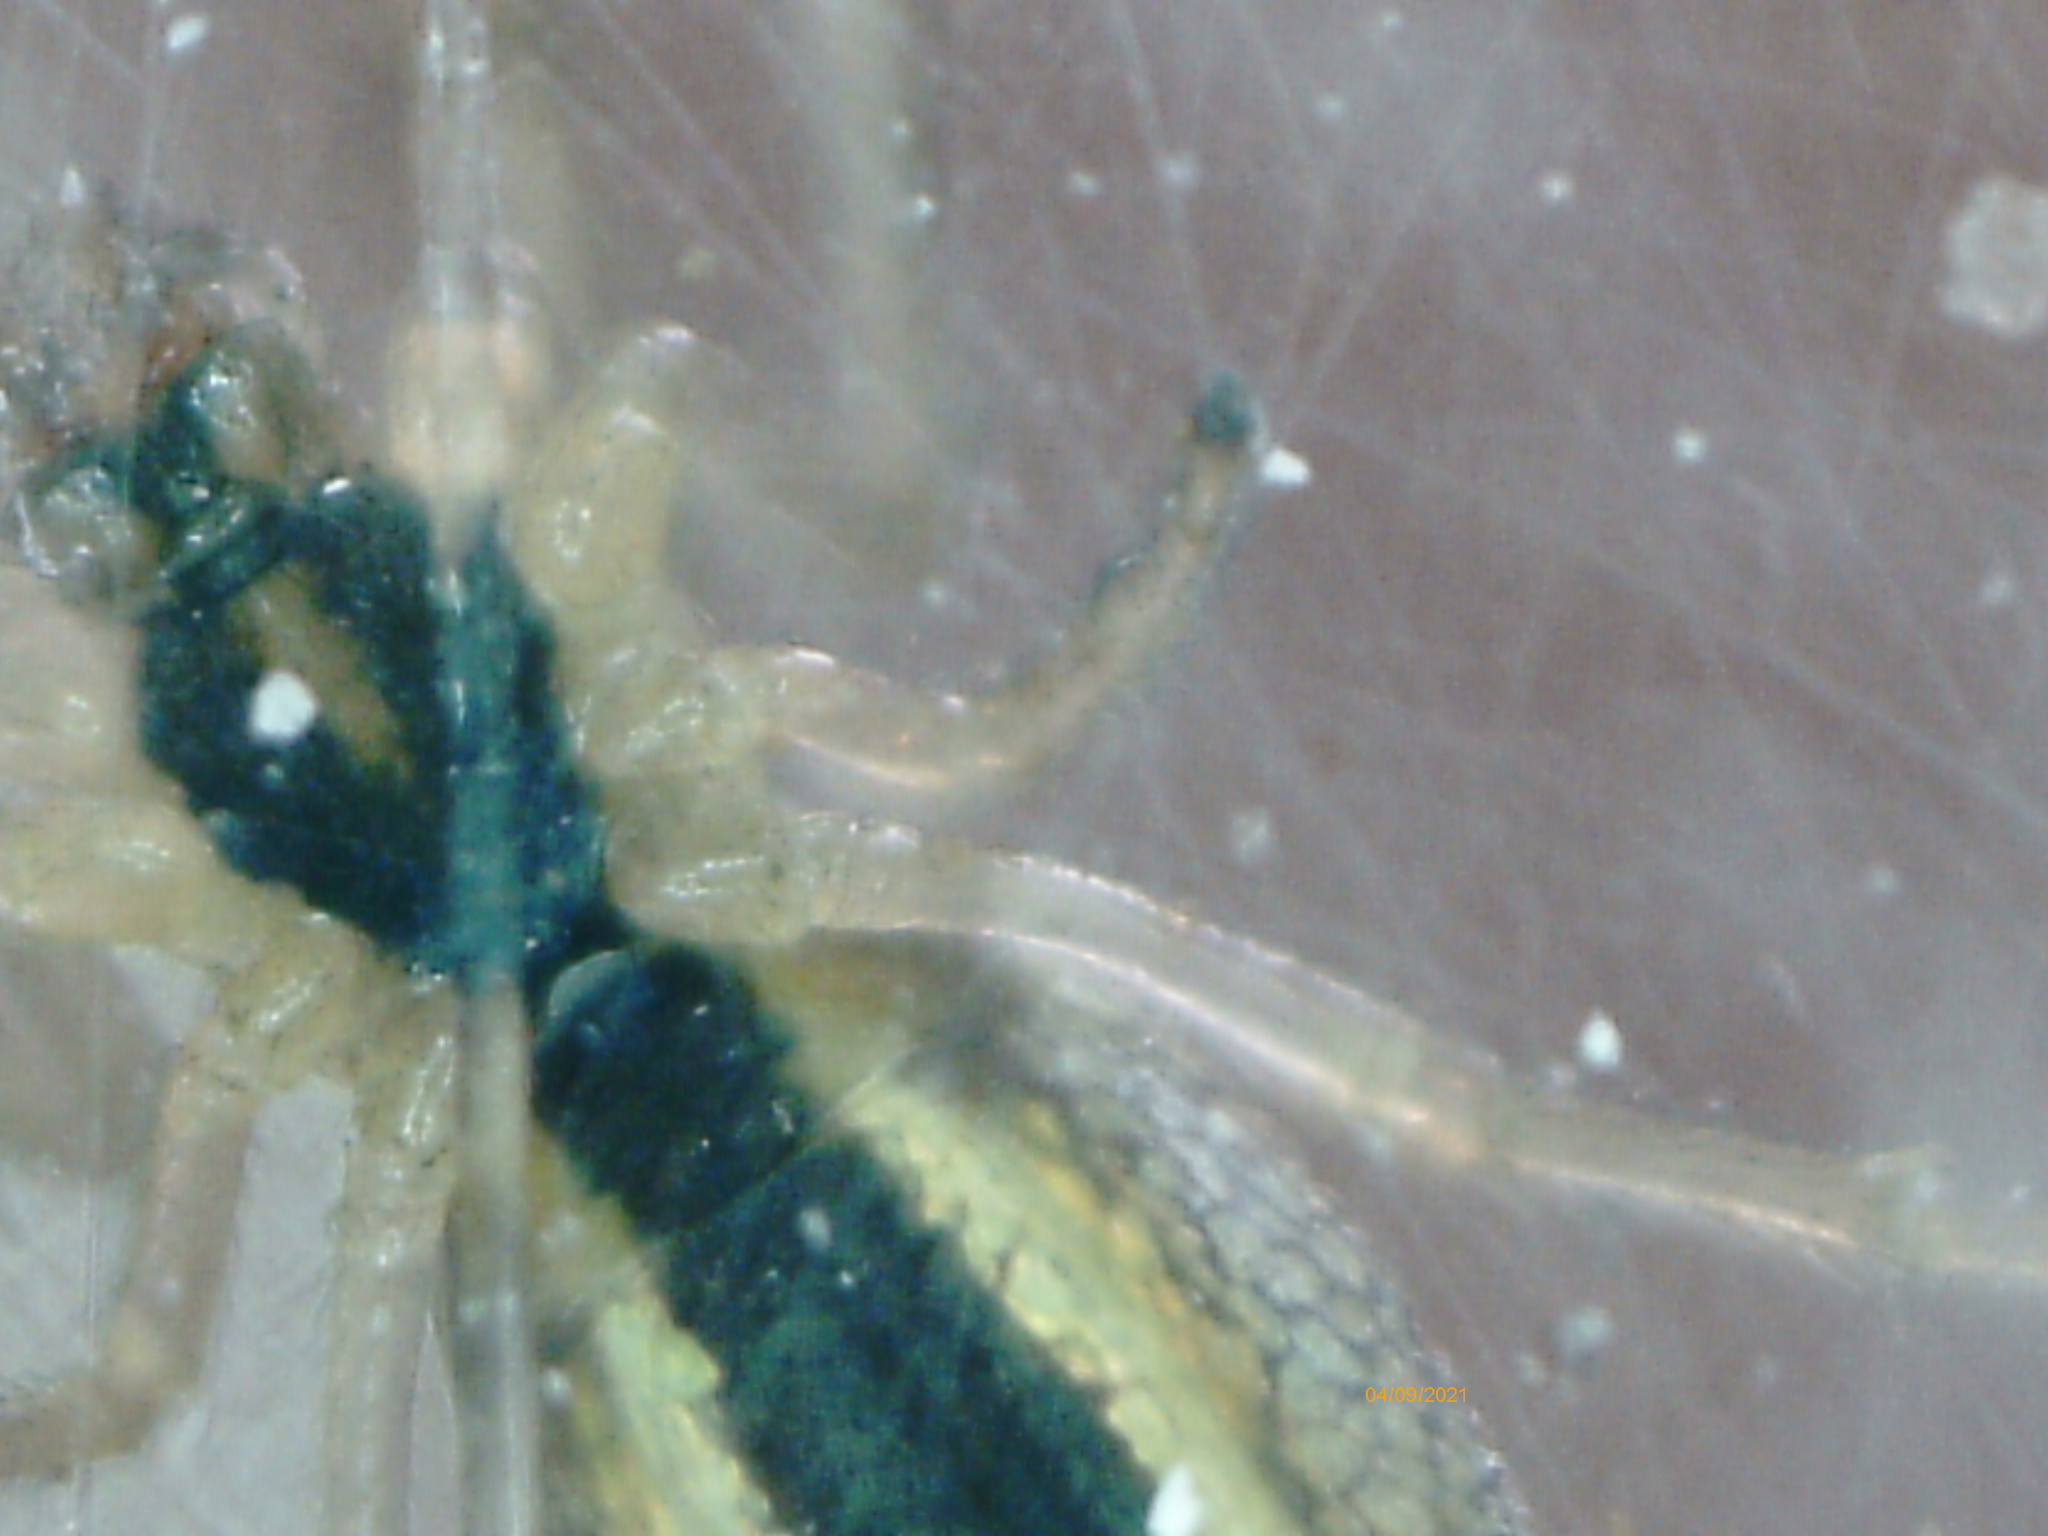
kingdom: Animalia
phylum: Arthropoda
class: Arachnida
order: Araneae
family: Tetragnathidae
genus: Tetragnatha
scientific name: Tetragnatha pinicola
